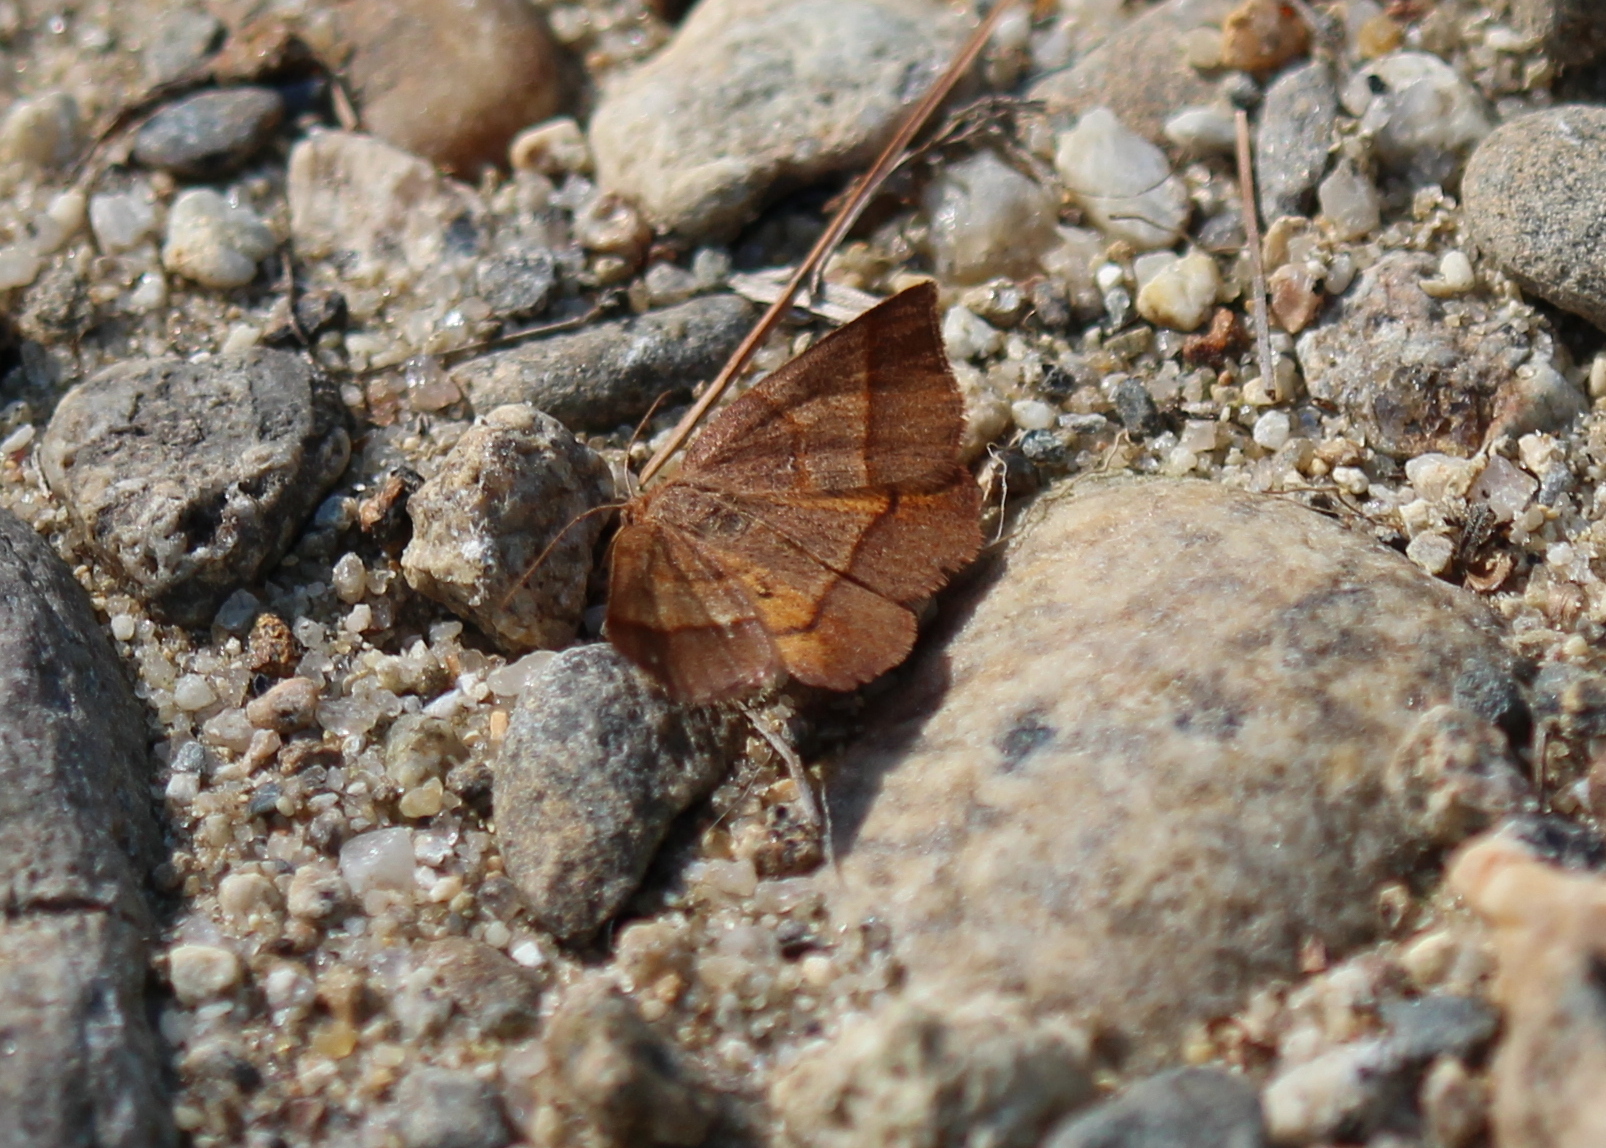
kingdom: Animalia
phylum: Arthropoda
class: Insecta
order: Lepidoptera
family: Geometridae
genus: Metarranthis
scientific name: Metarranthis obfirmaria
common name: Yellow-washed metarranthis
